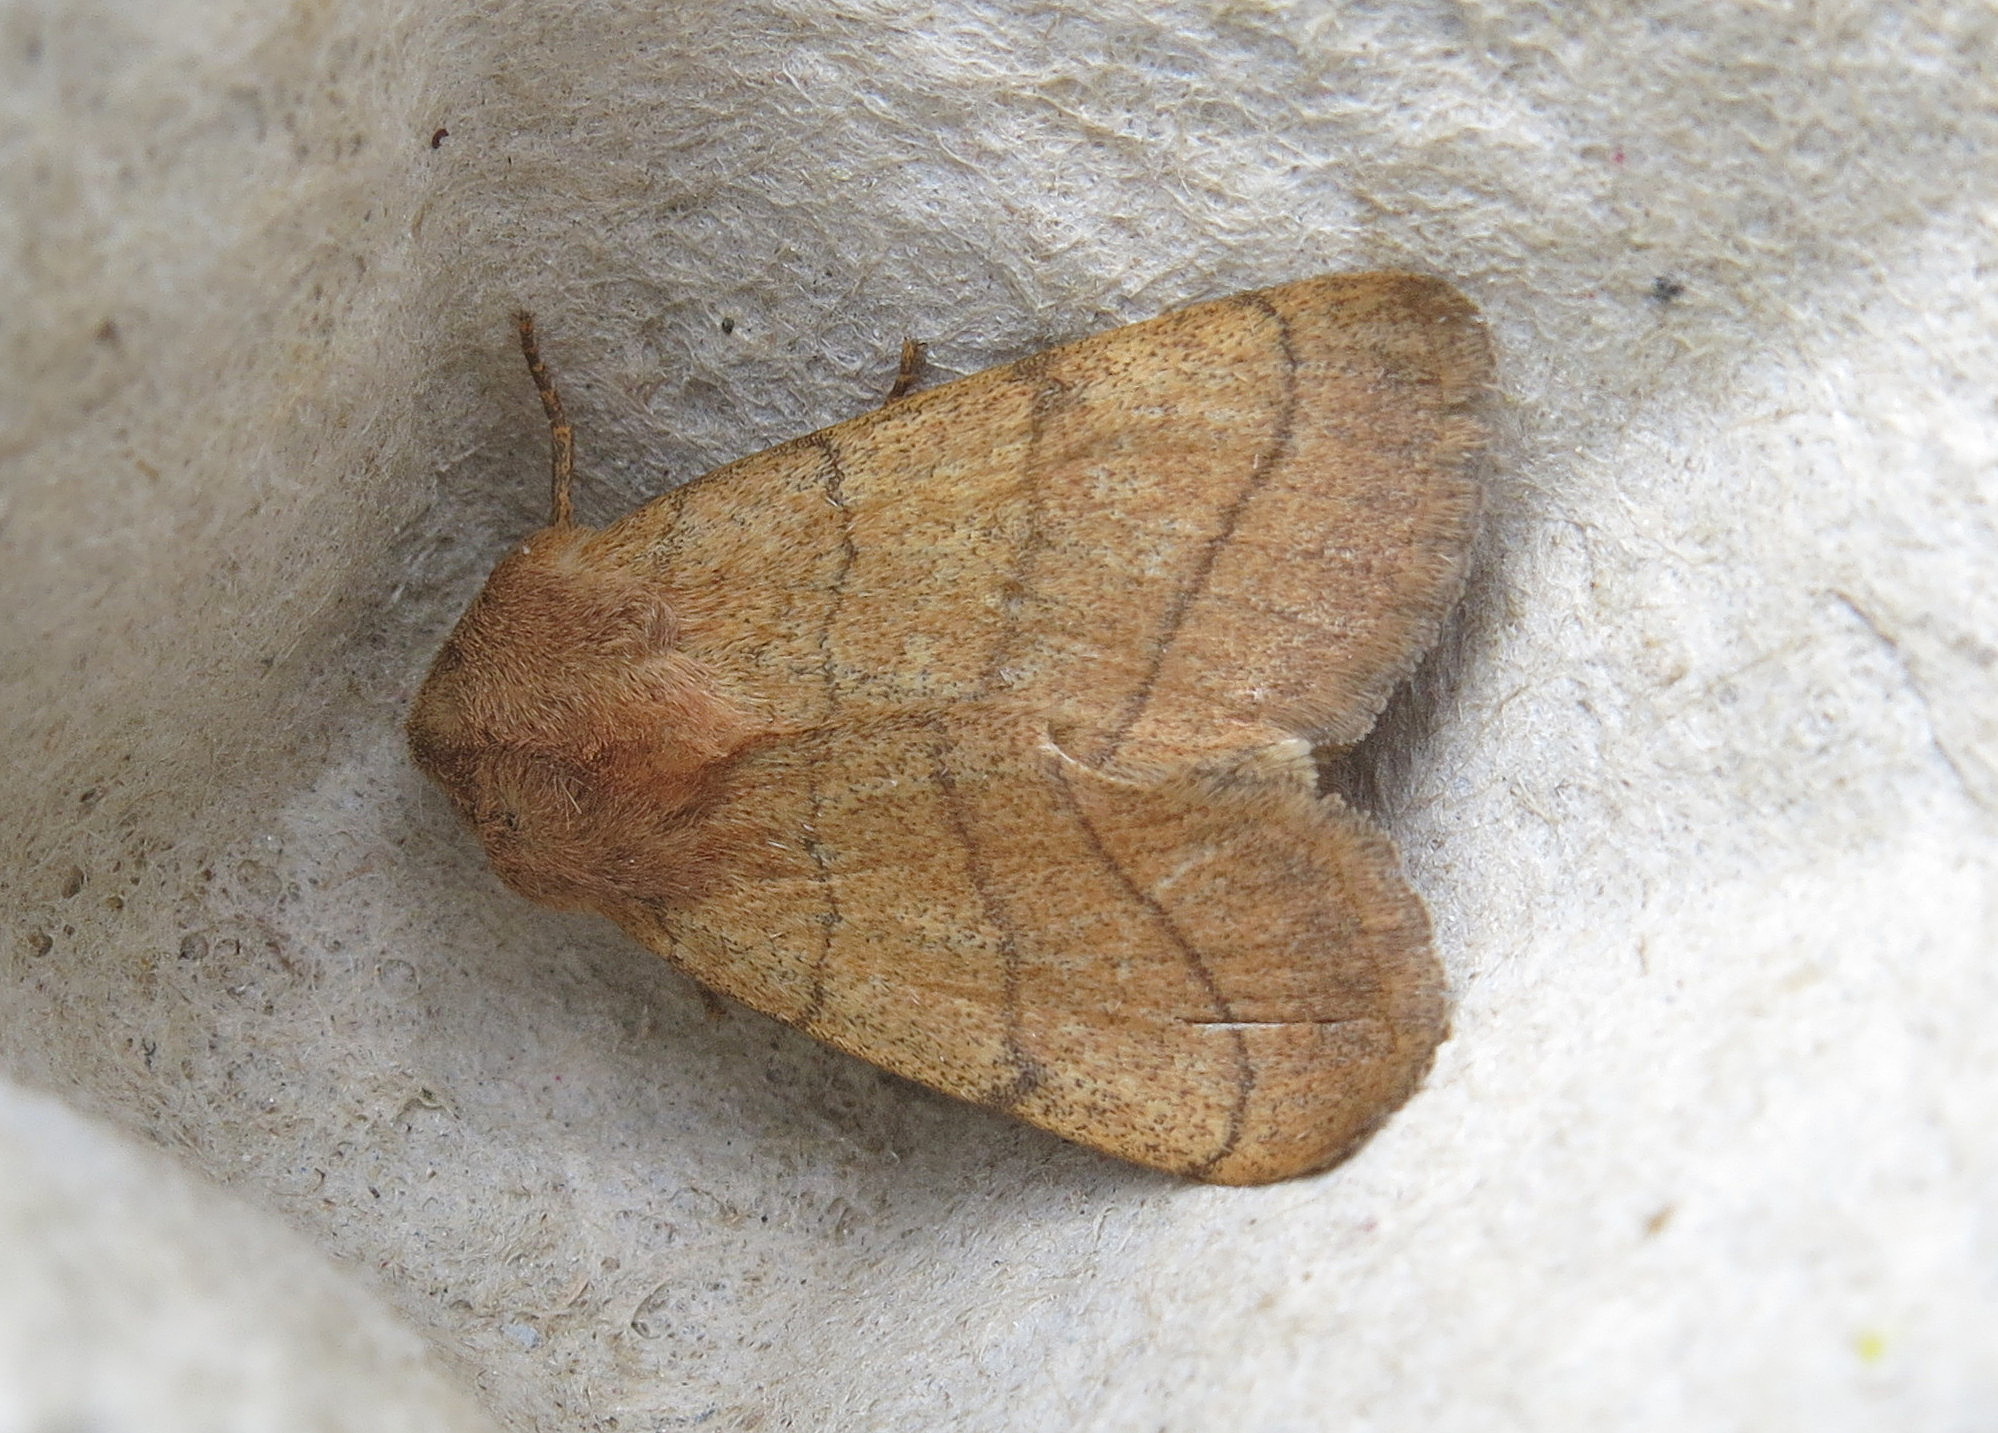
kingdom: Animalia
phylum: Arthropoda
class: Insecta
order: Lepidoptera
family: Noctuidae
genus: Charanyca
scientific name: Charanyca trigrammica
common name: Treble lines
